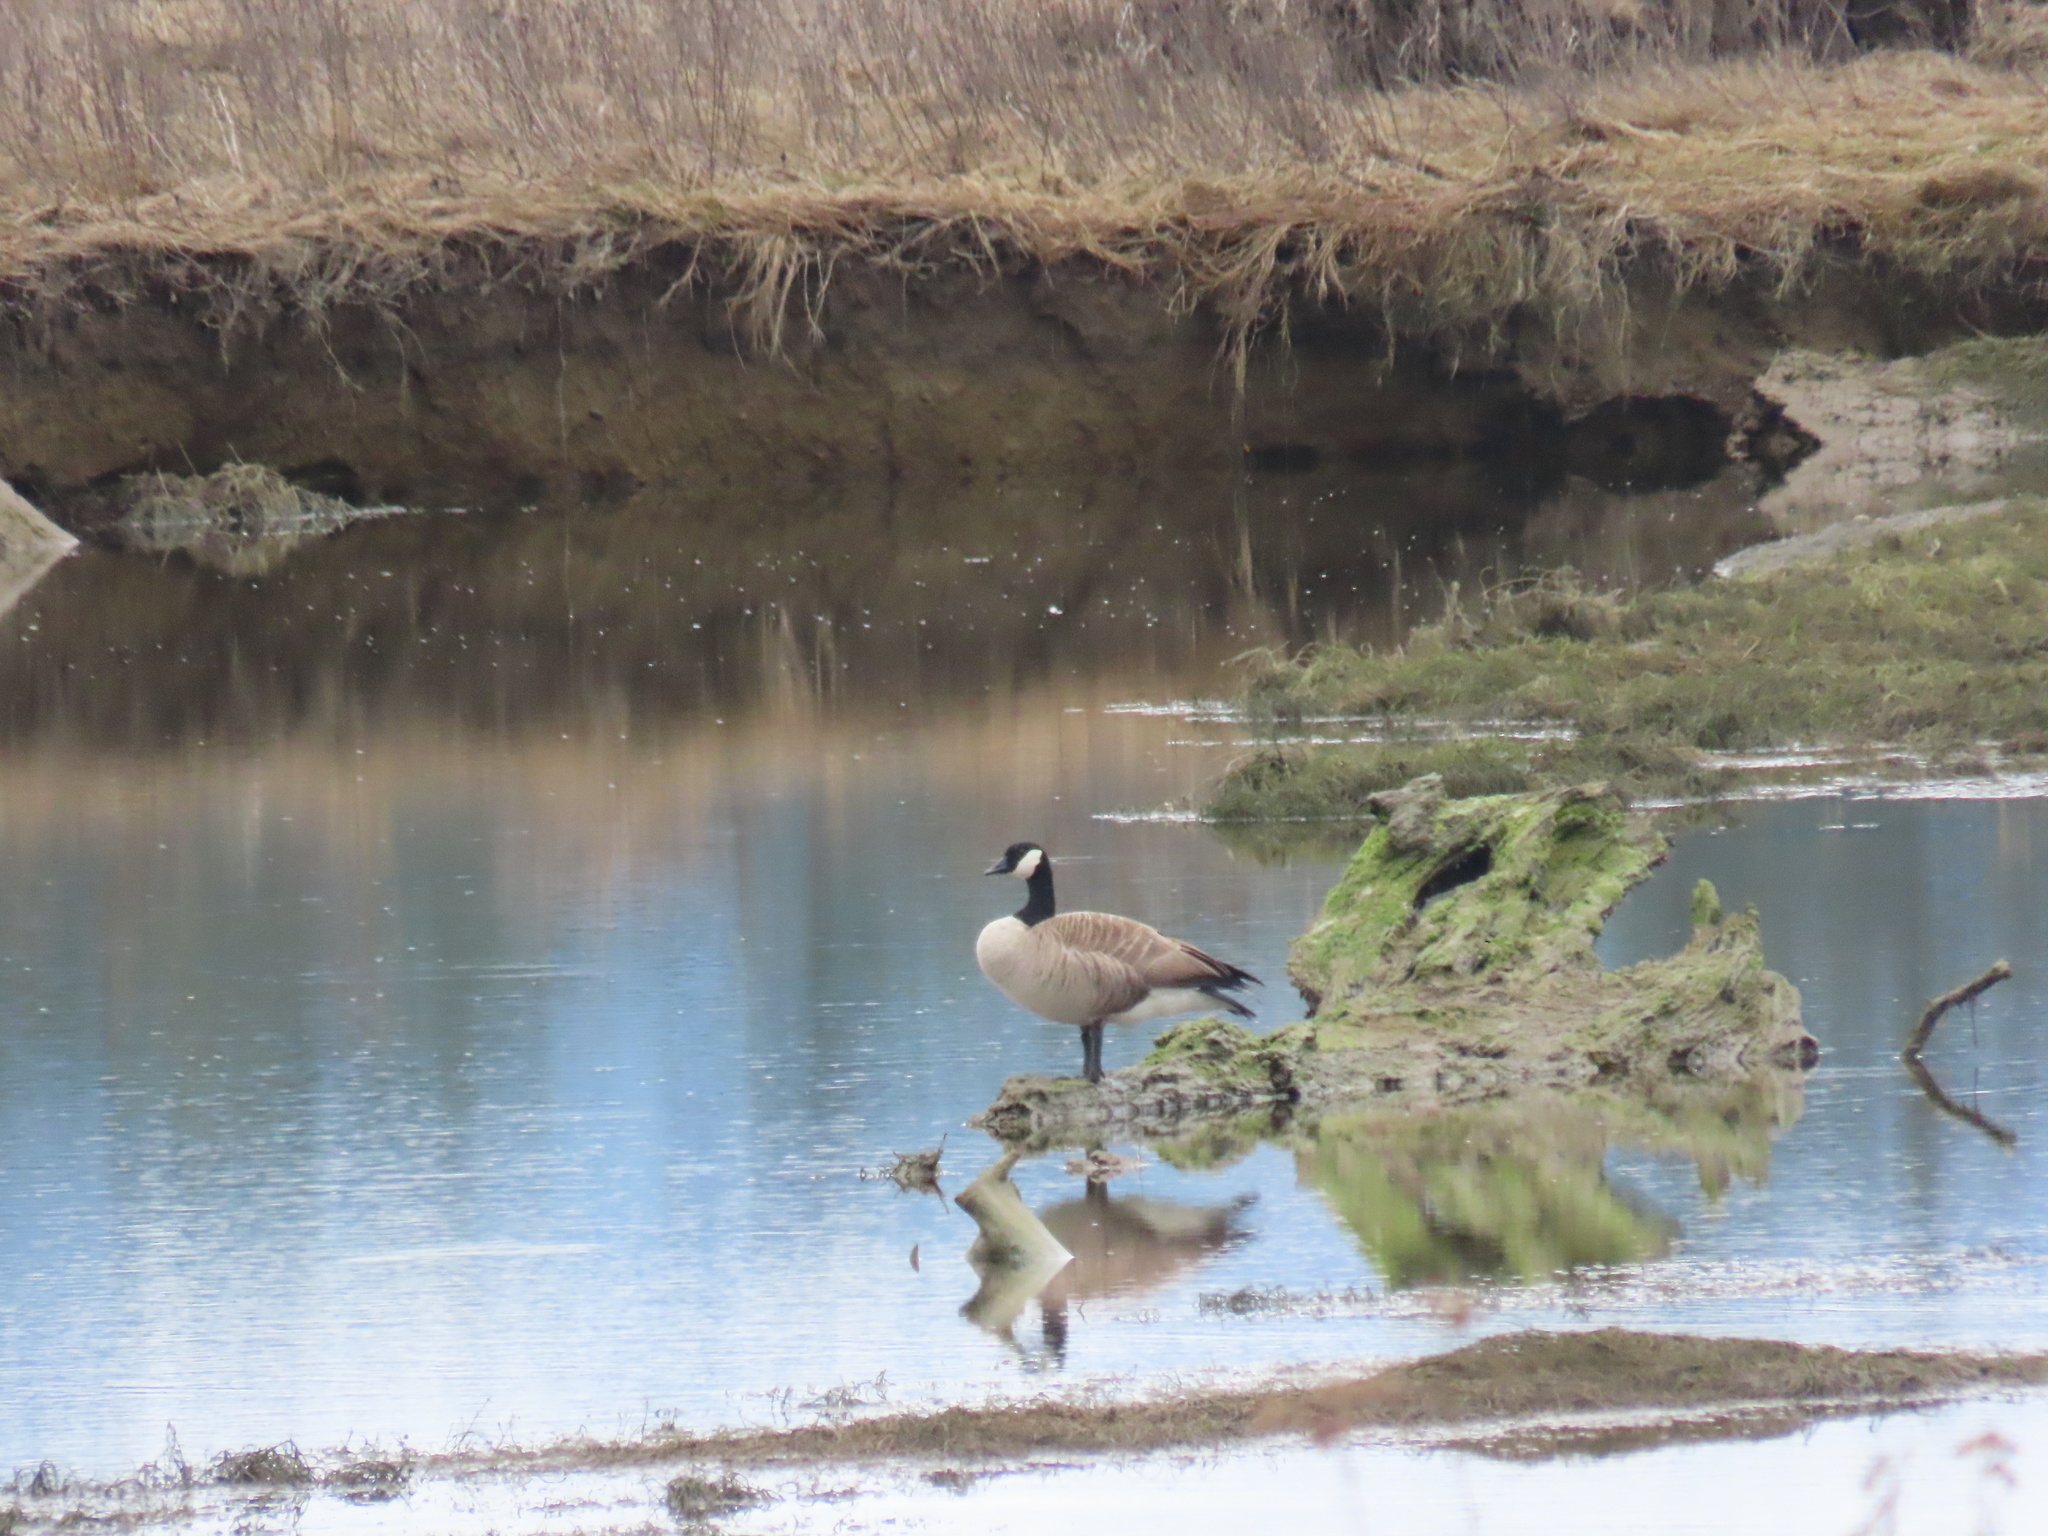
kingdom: Animalia
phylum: Chordata
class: Aves
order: Anseriformes
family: Anatidae
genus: Branta
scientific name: Branta canadensis
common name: Canada goose
